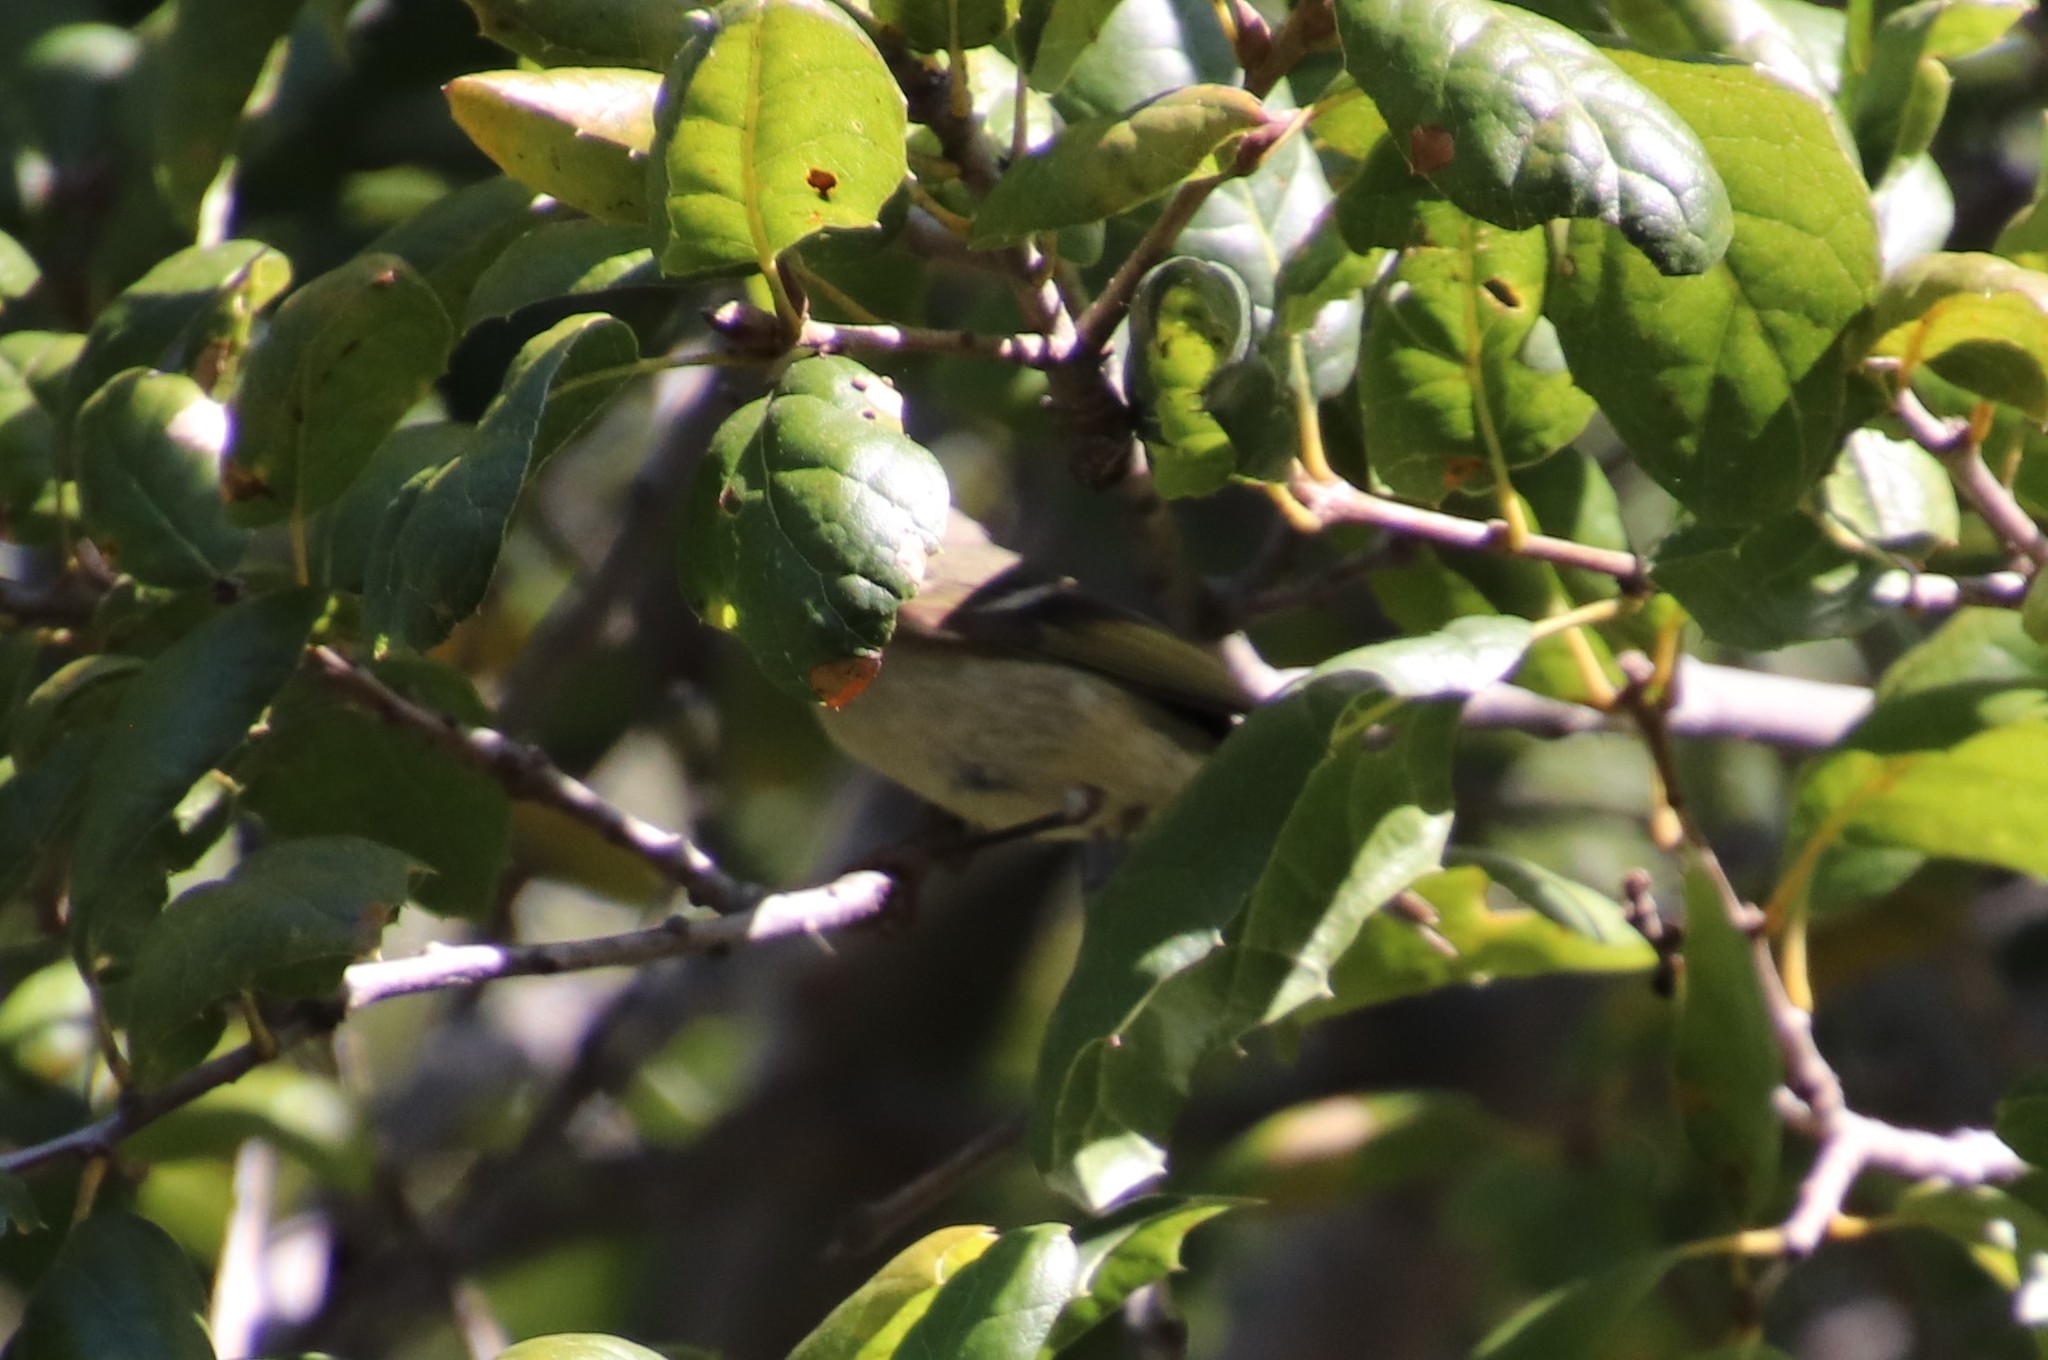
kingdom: Animalia
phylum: Chordata
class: Aves
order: Passeriformes
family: Regulidae
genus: Regulus
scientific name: Regulus calendula
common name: Ruby-crowned kinglet
